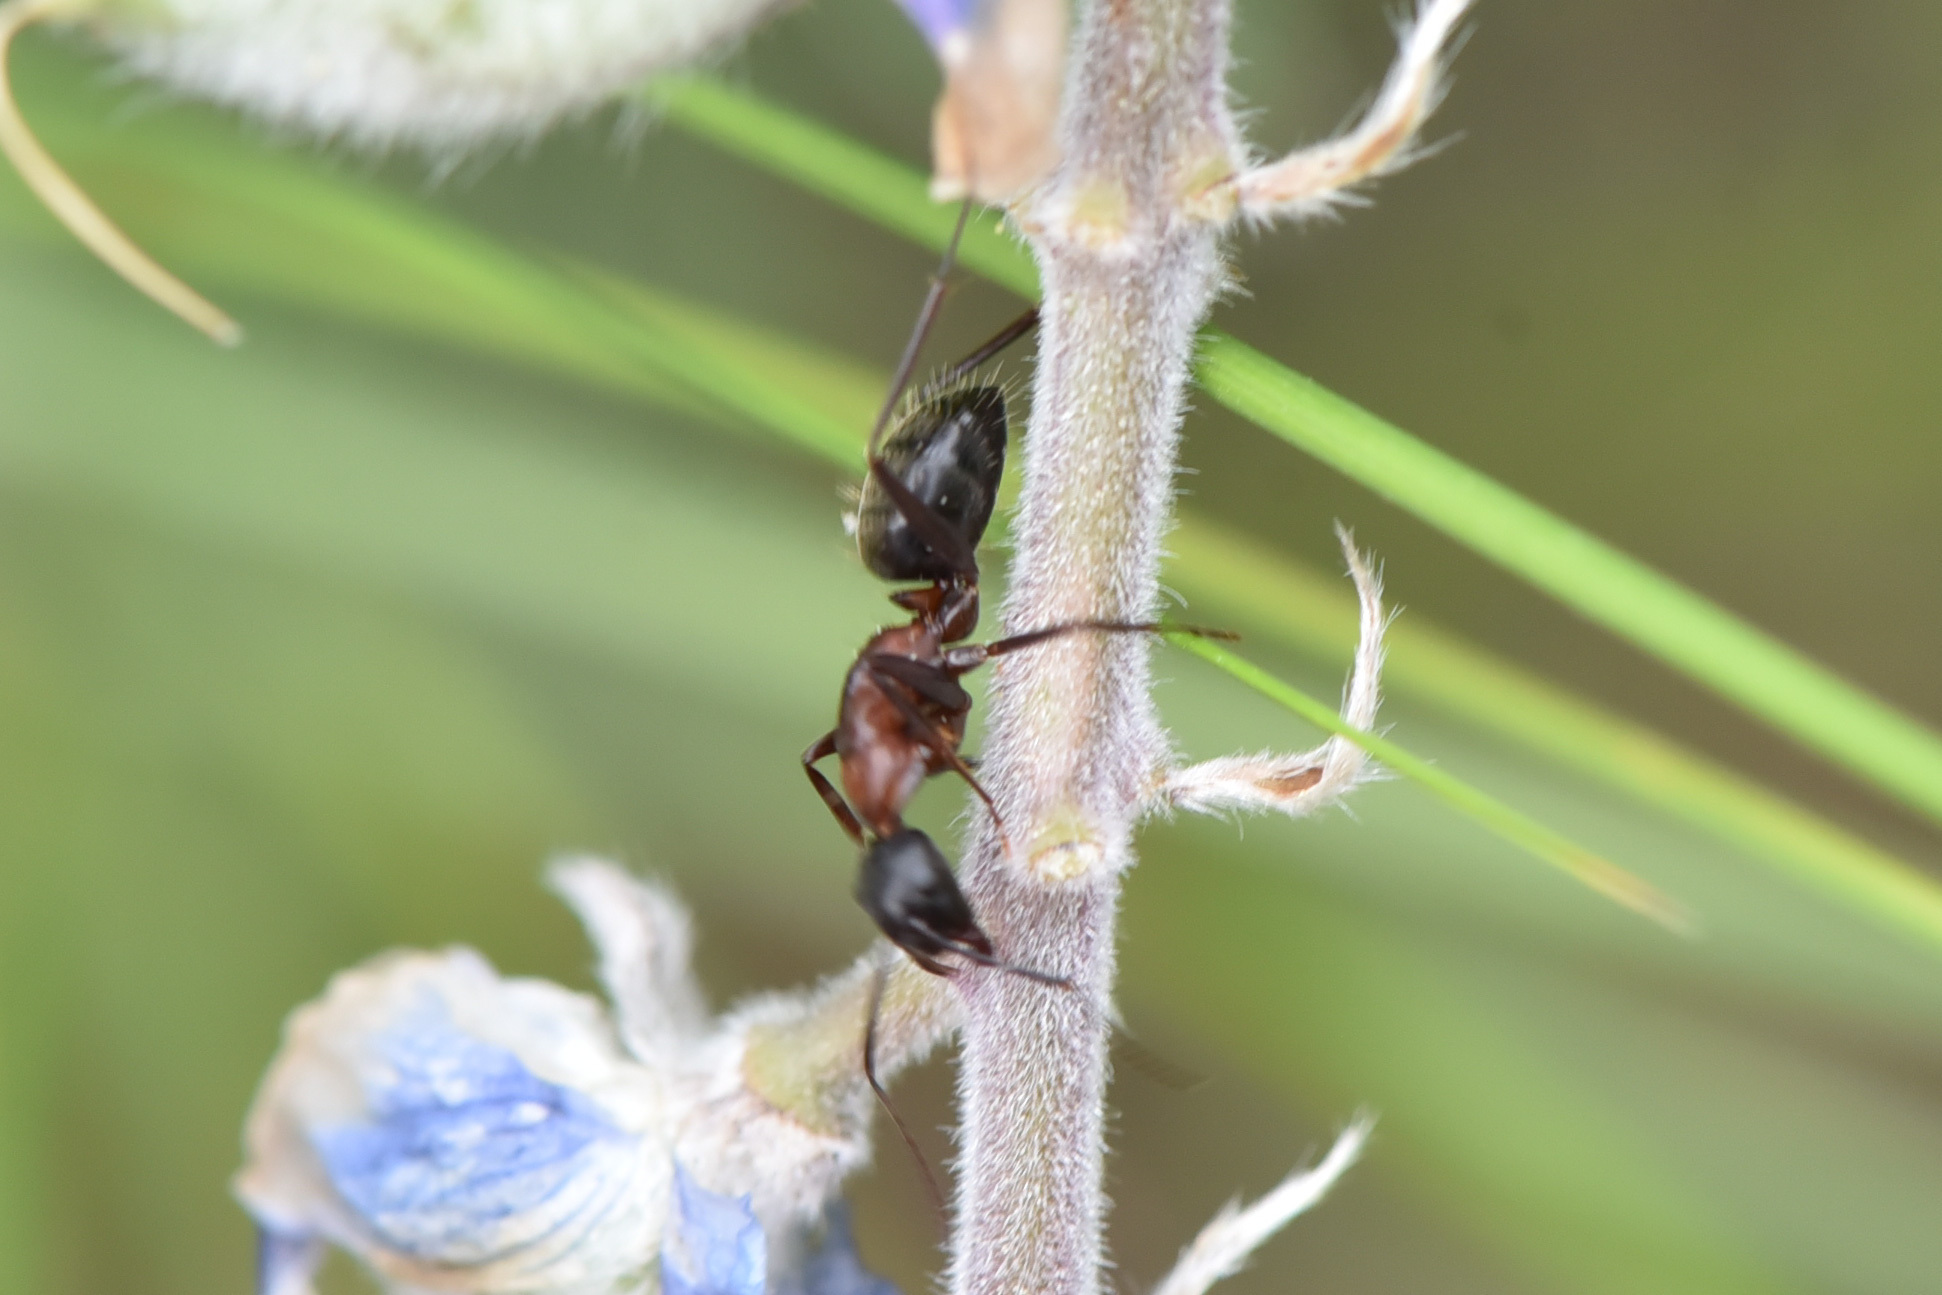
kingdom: Animalia
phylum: Arthropoda
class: Insecta
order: Hymenoptera
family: Formicidae
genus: Camponotus
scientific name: Camponotus vicinus
